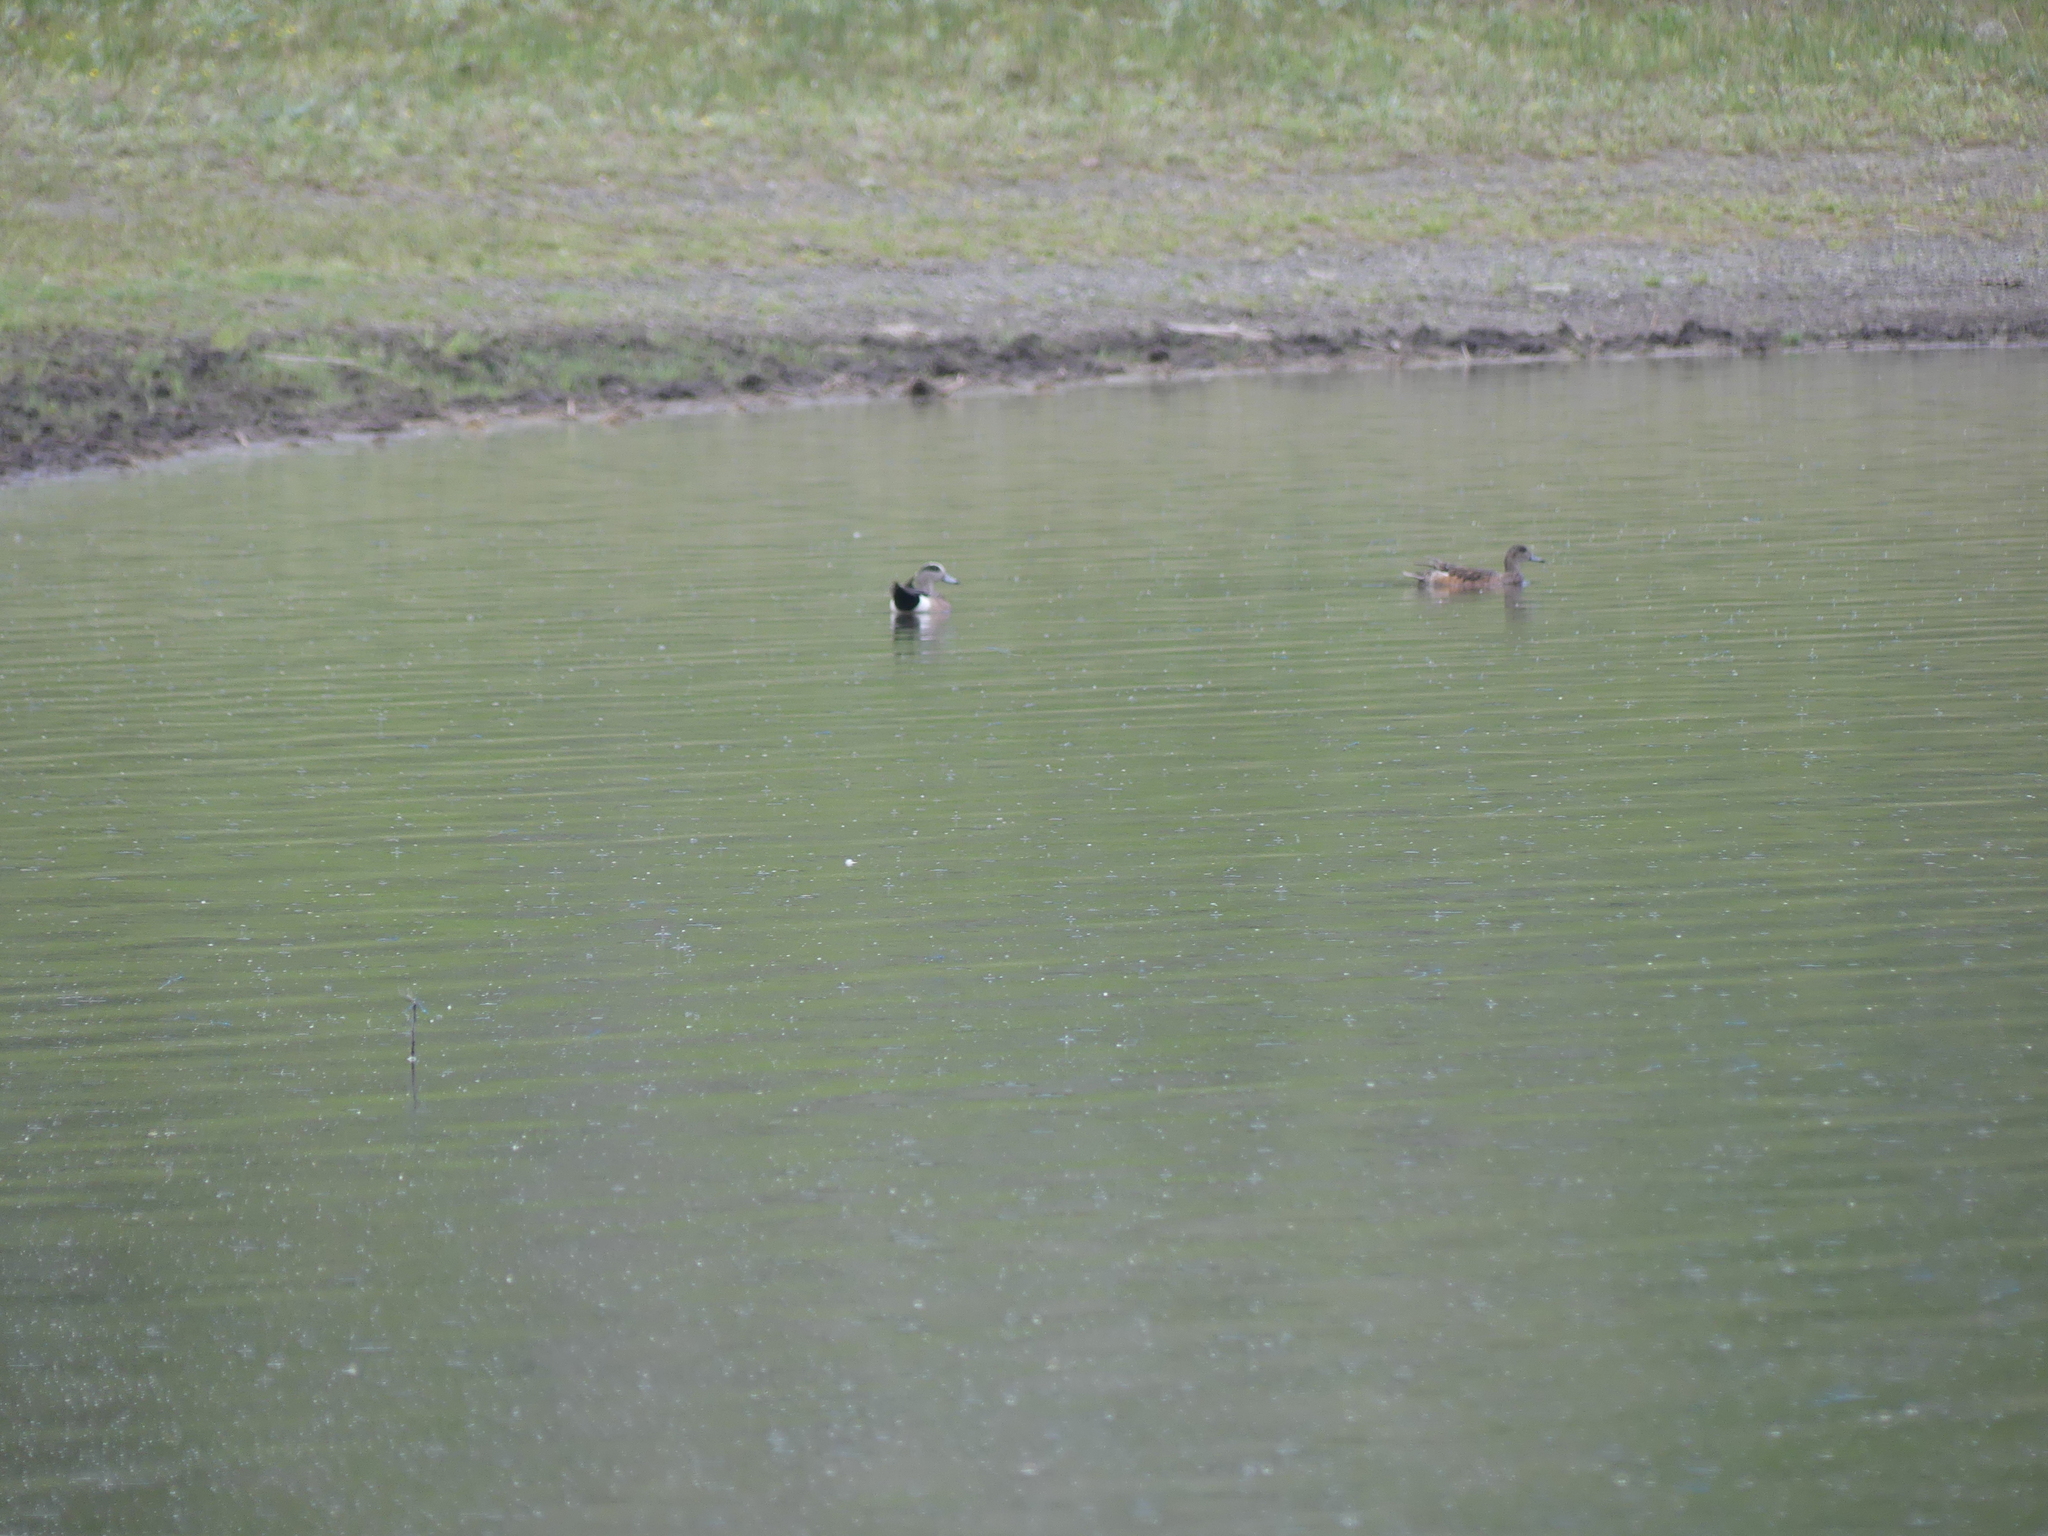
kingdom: Animalia
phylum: Chordata
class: Aves
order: Anseriformes
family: Anatidae
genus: Mareca
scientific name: Mareca americana
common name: American wigeon
